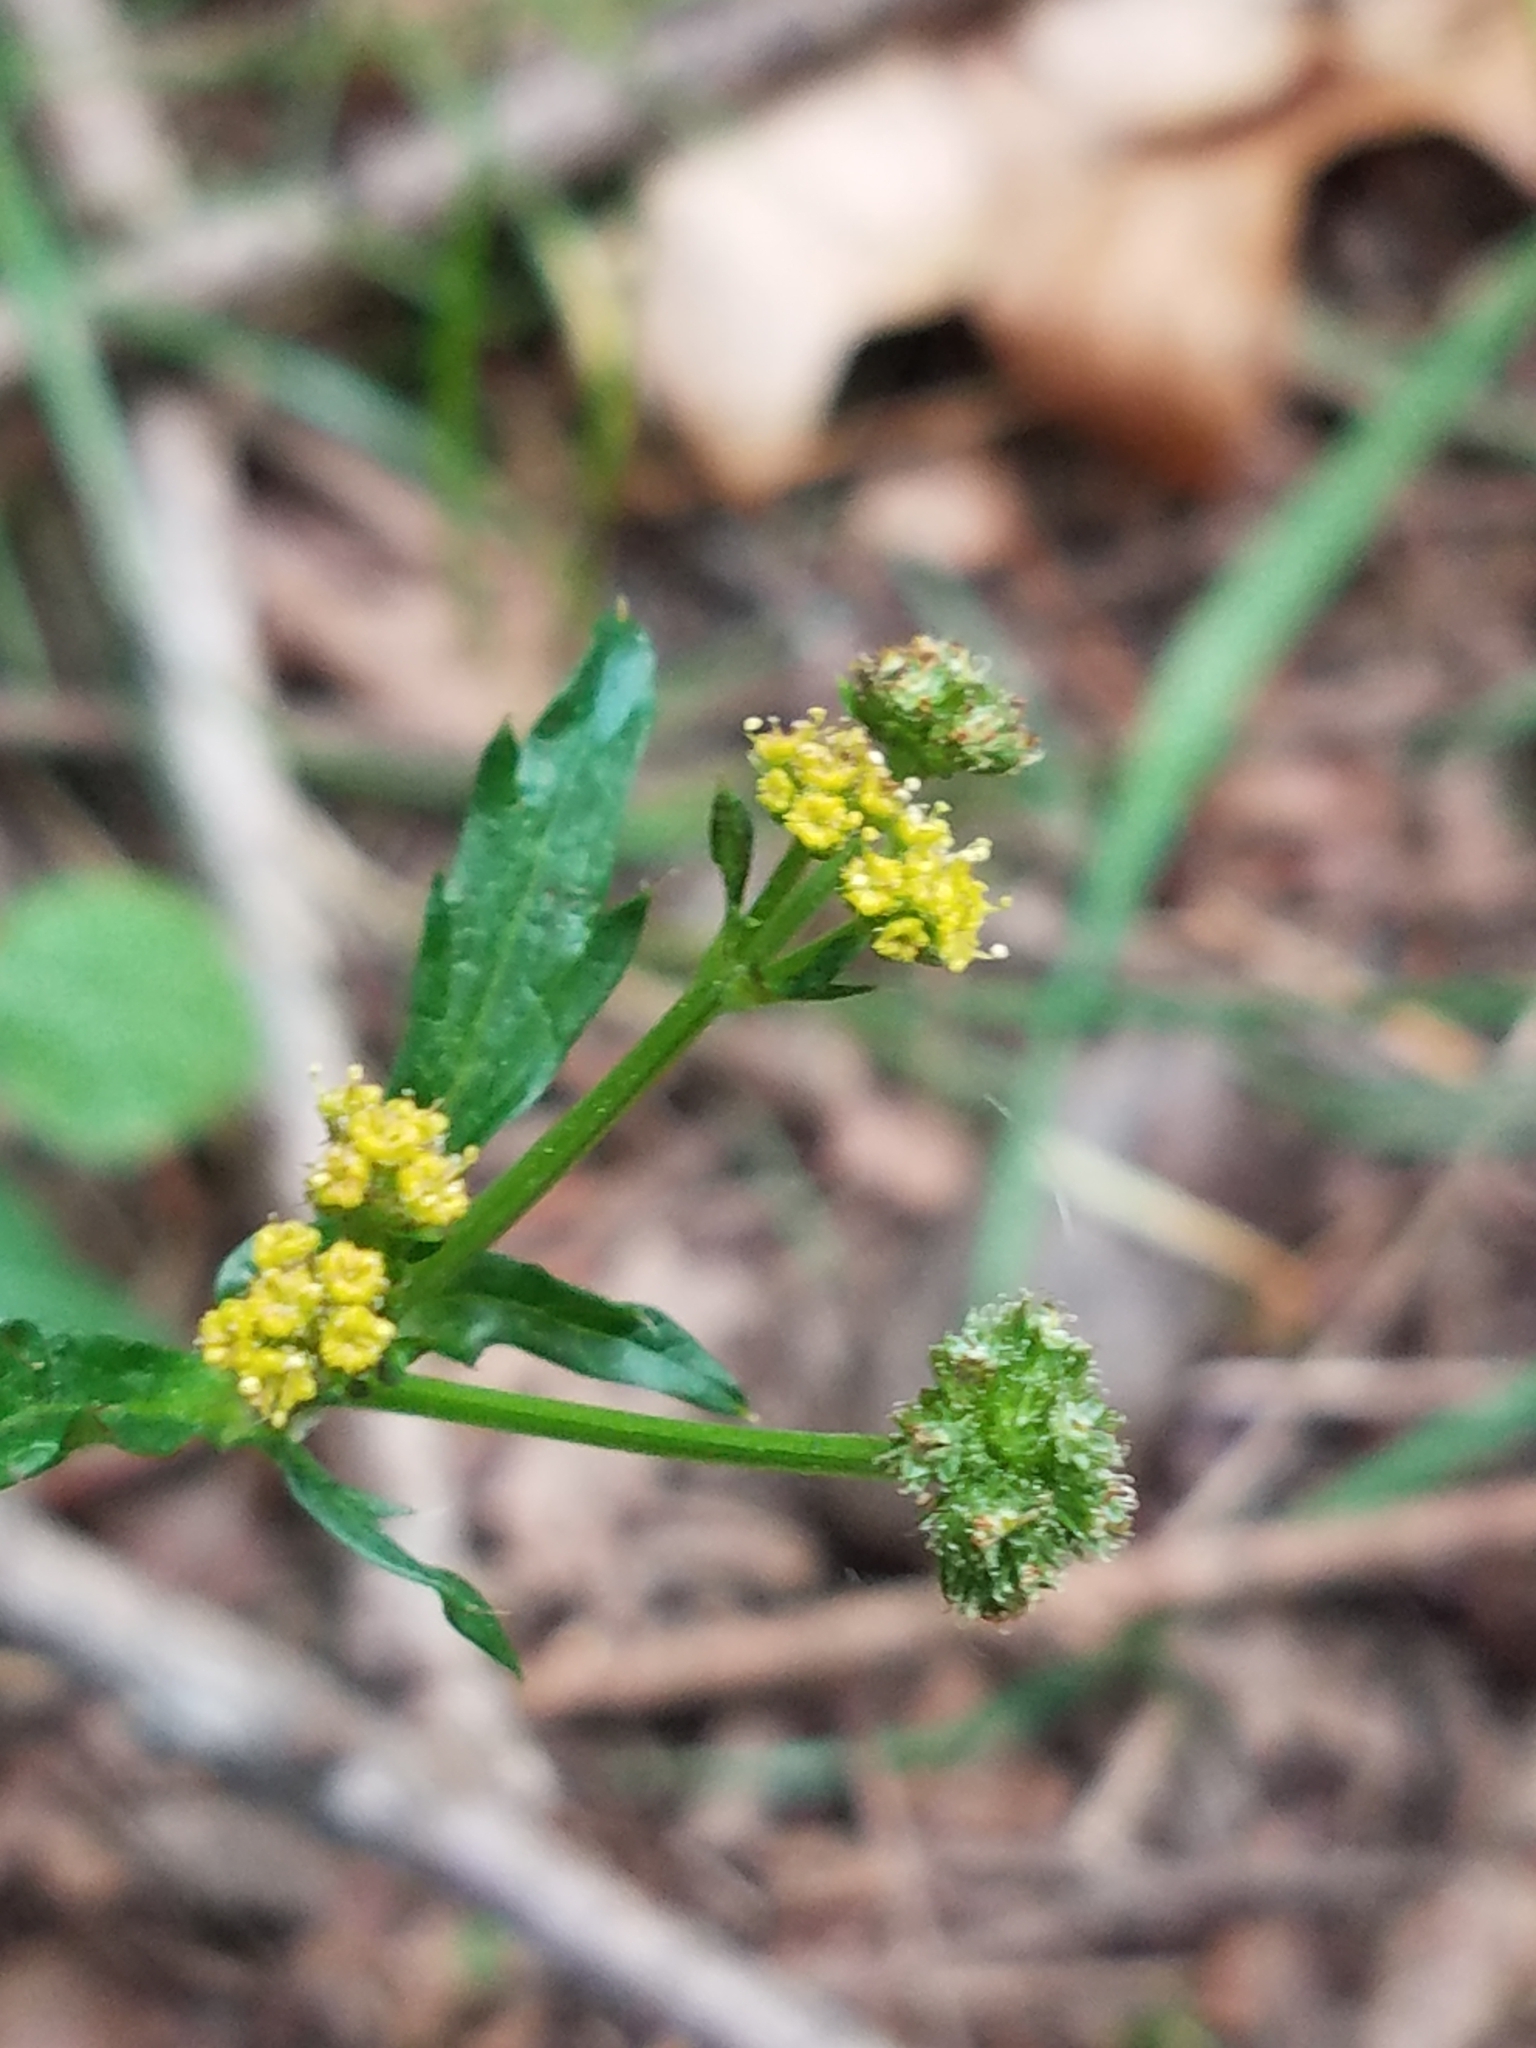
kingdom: Plantae
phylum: Tracheophyta
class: Magnoliopsida
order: Apiales
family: Apiaceae
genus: Sanicula
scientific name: Sanicula crassicaulis
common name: Western snakeroot
